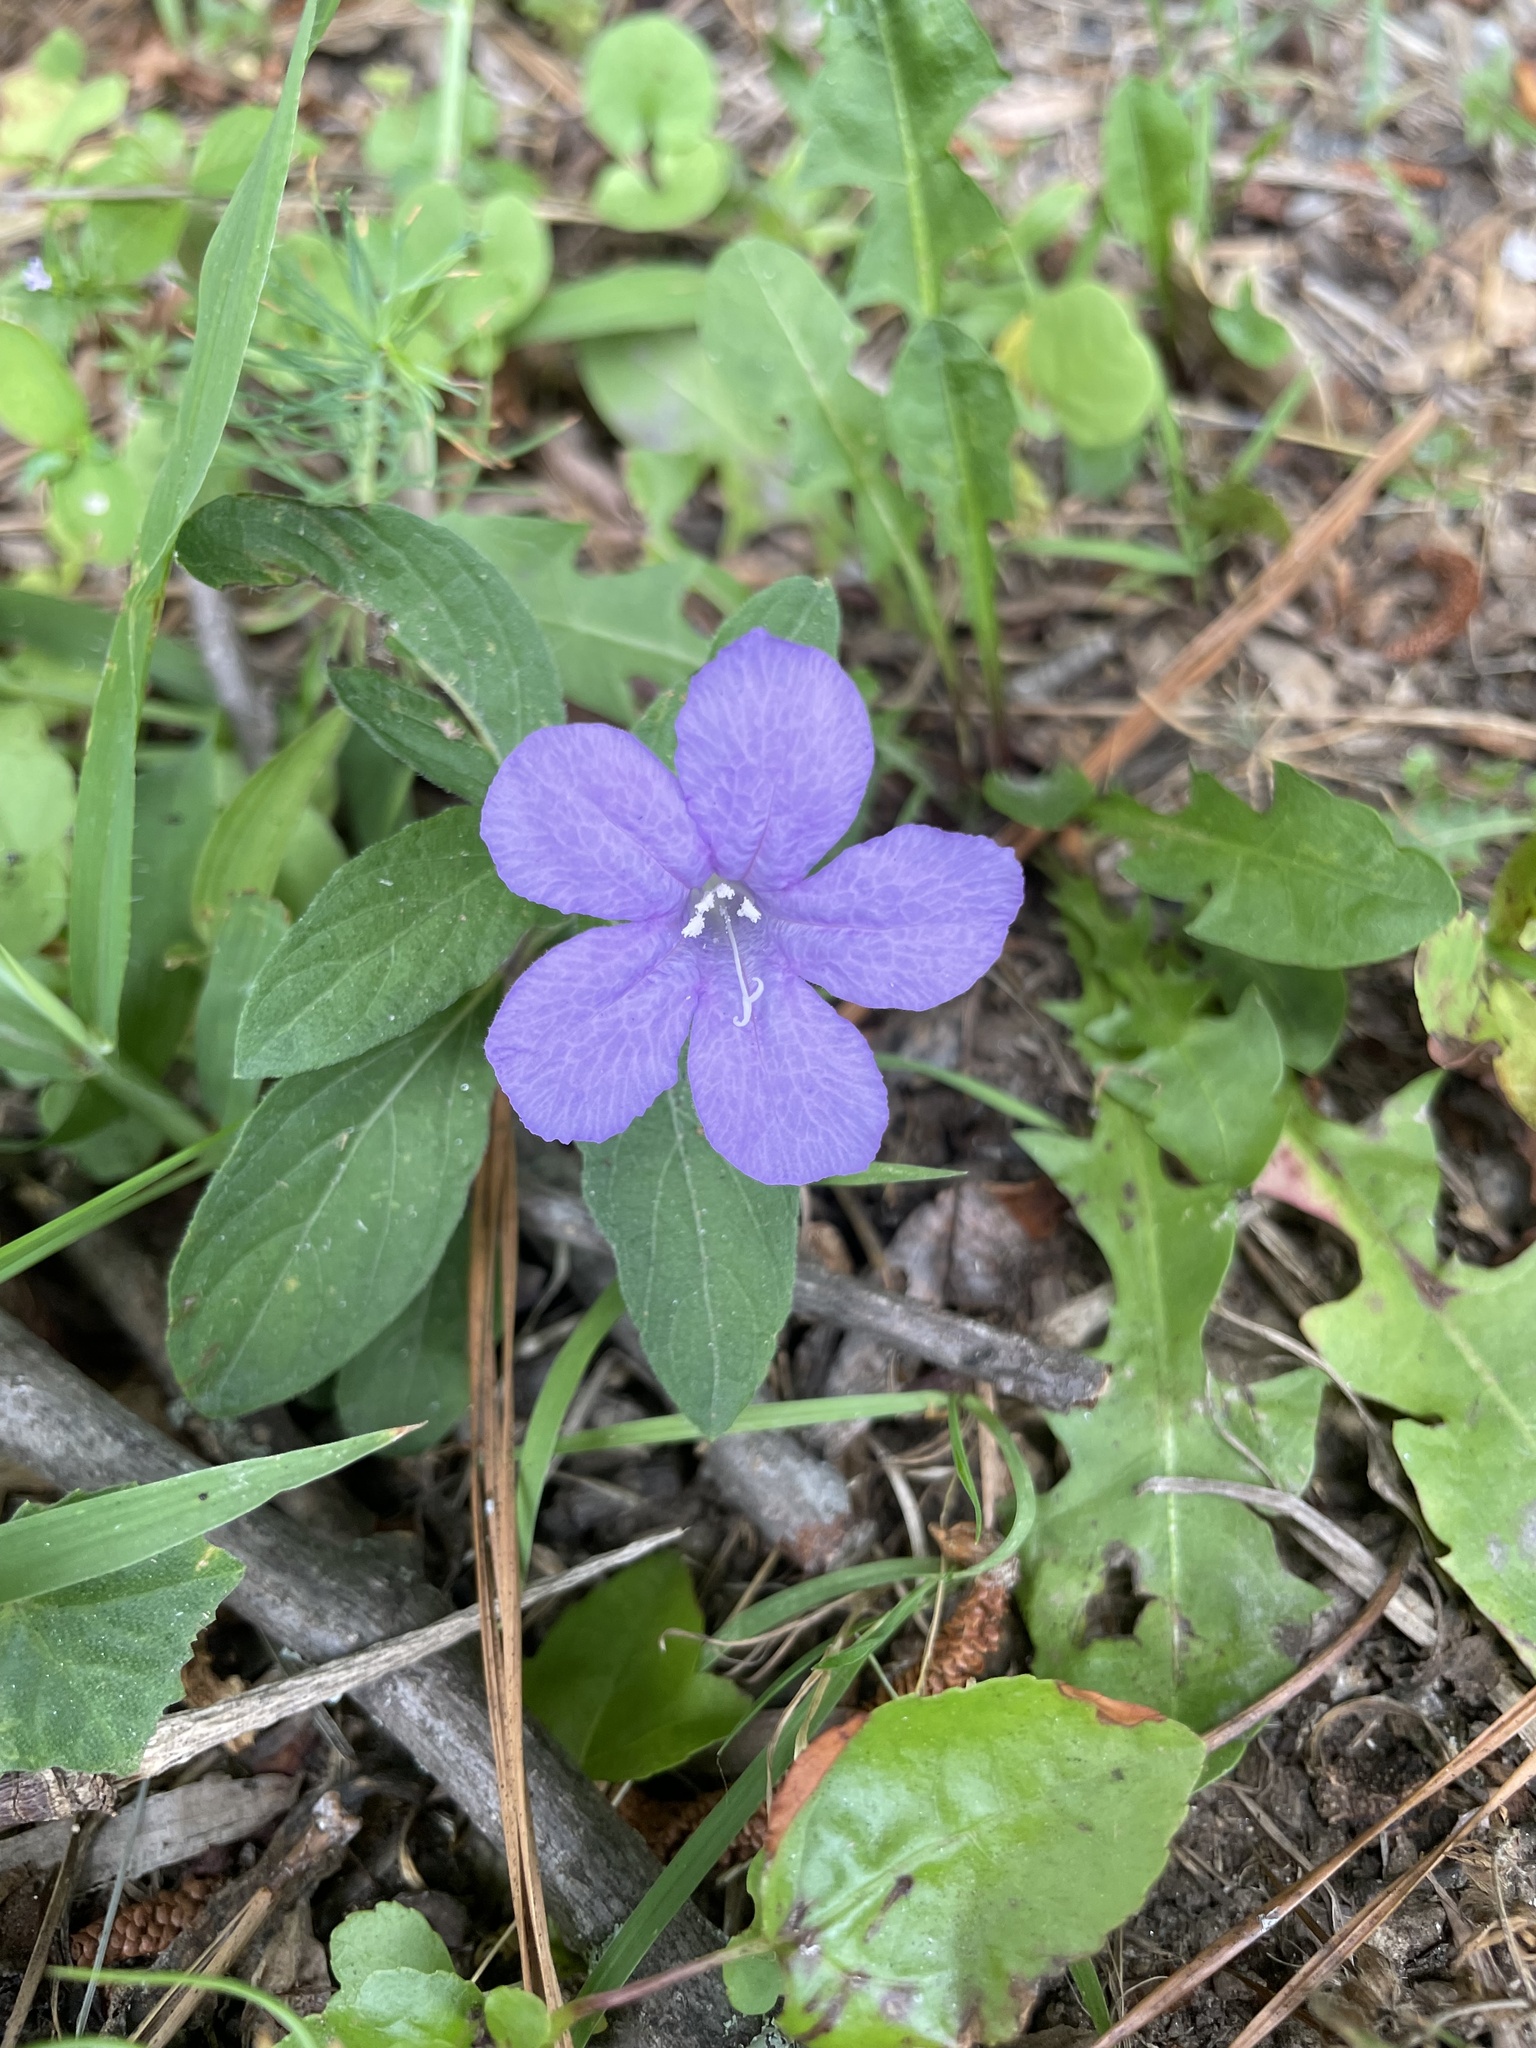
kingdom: Plantae
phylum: Tracheophyta
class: Magnoliopsida
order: Lamiales
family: Acanthaceae
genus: Ruellia
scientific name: Ruellia caroliniensis
